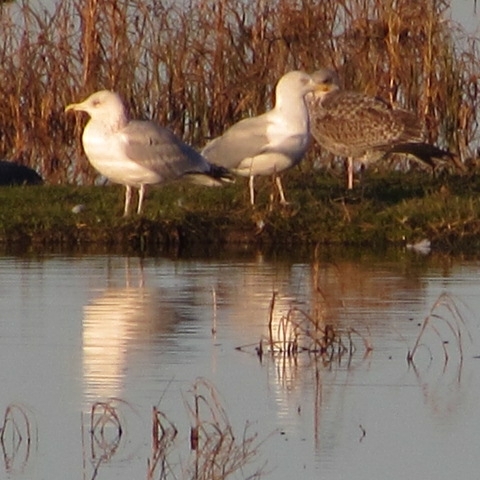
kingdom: Animalia
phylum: Chordata
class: Aves
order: Charadriiformes
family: Laridae
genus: Larus
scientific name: Larus argentatus
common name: Herring gull
